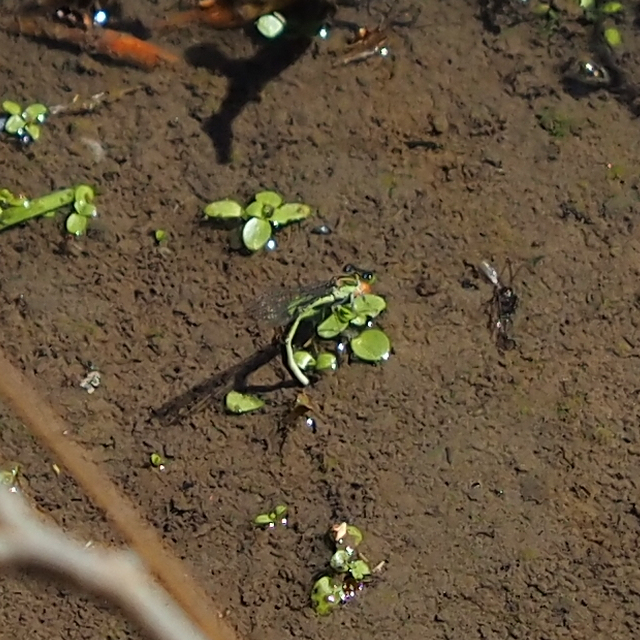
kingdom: Animalia
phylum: Arthropoda
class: Insecta
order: Odonata
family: Coenagrionidae
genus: Ischnura
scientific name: Ischnura aurora
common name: Gossamer damselfly
